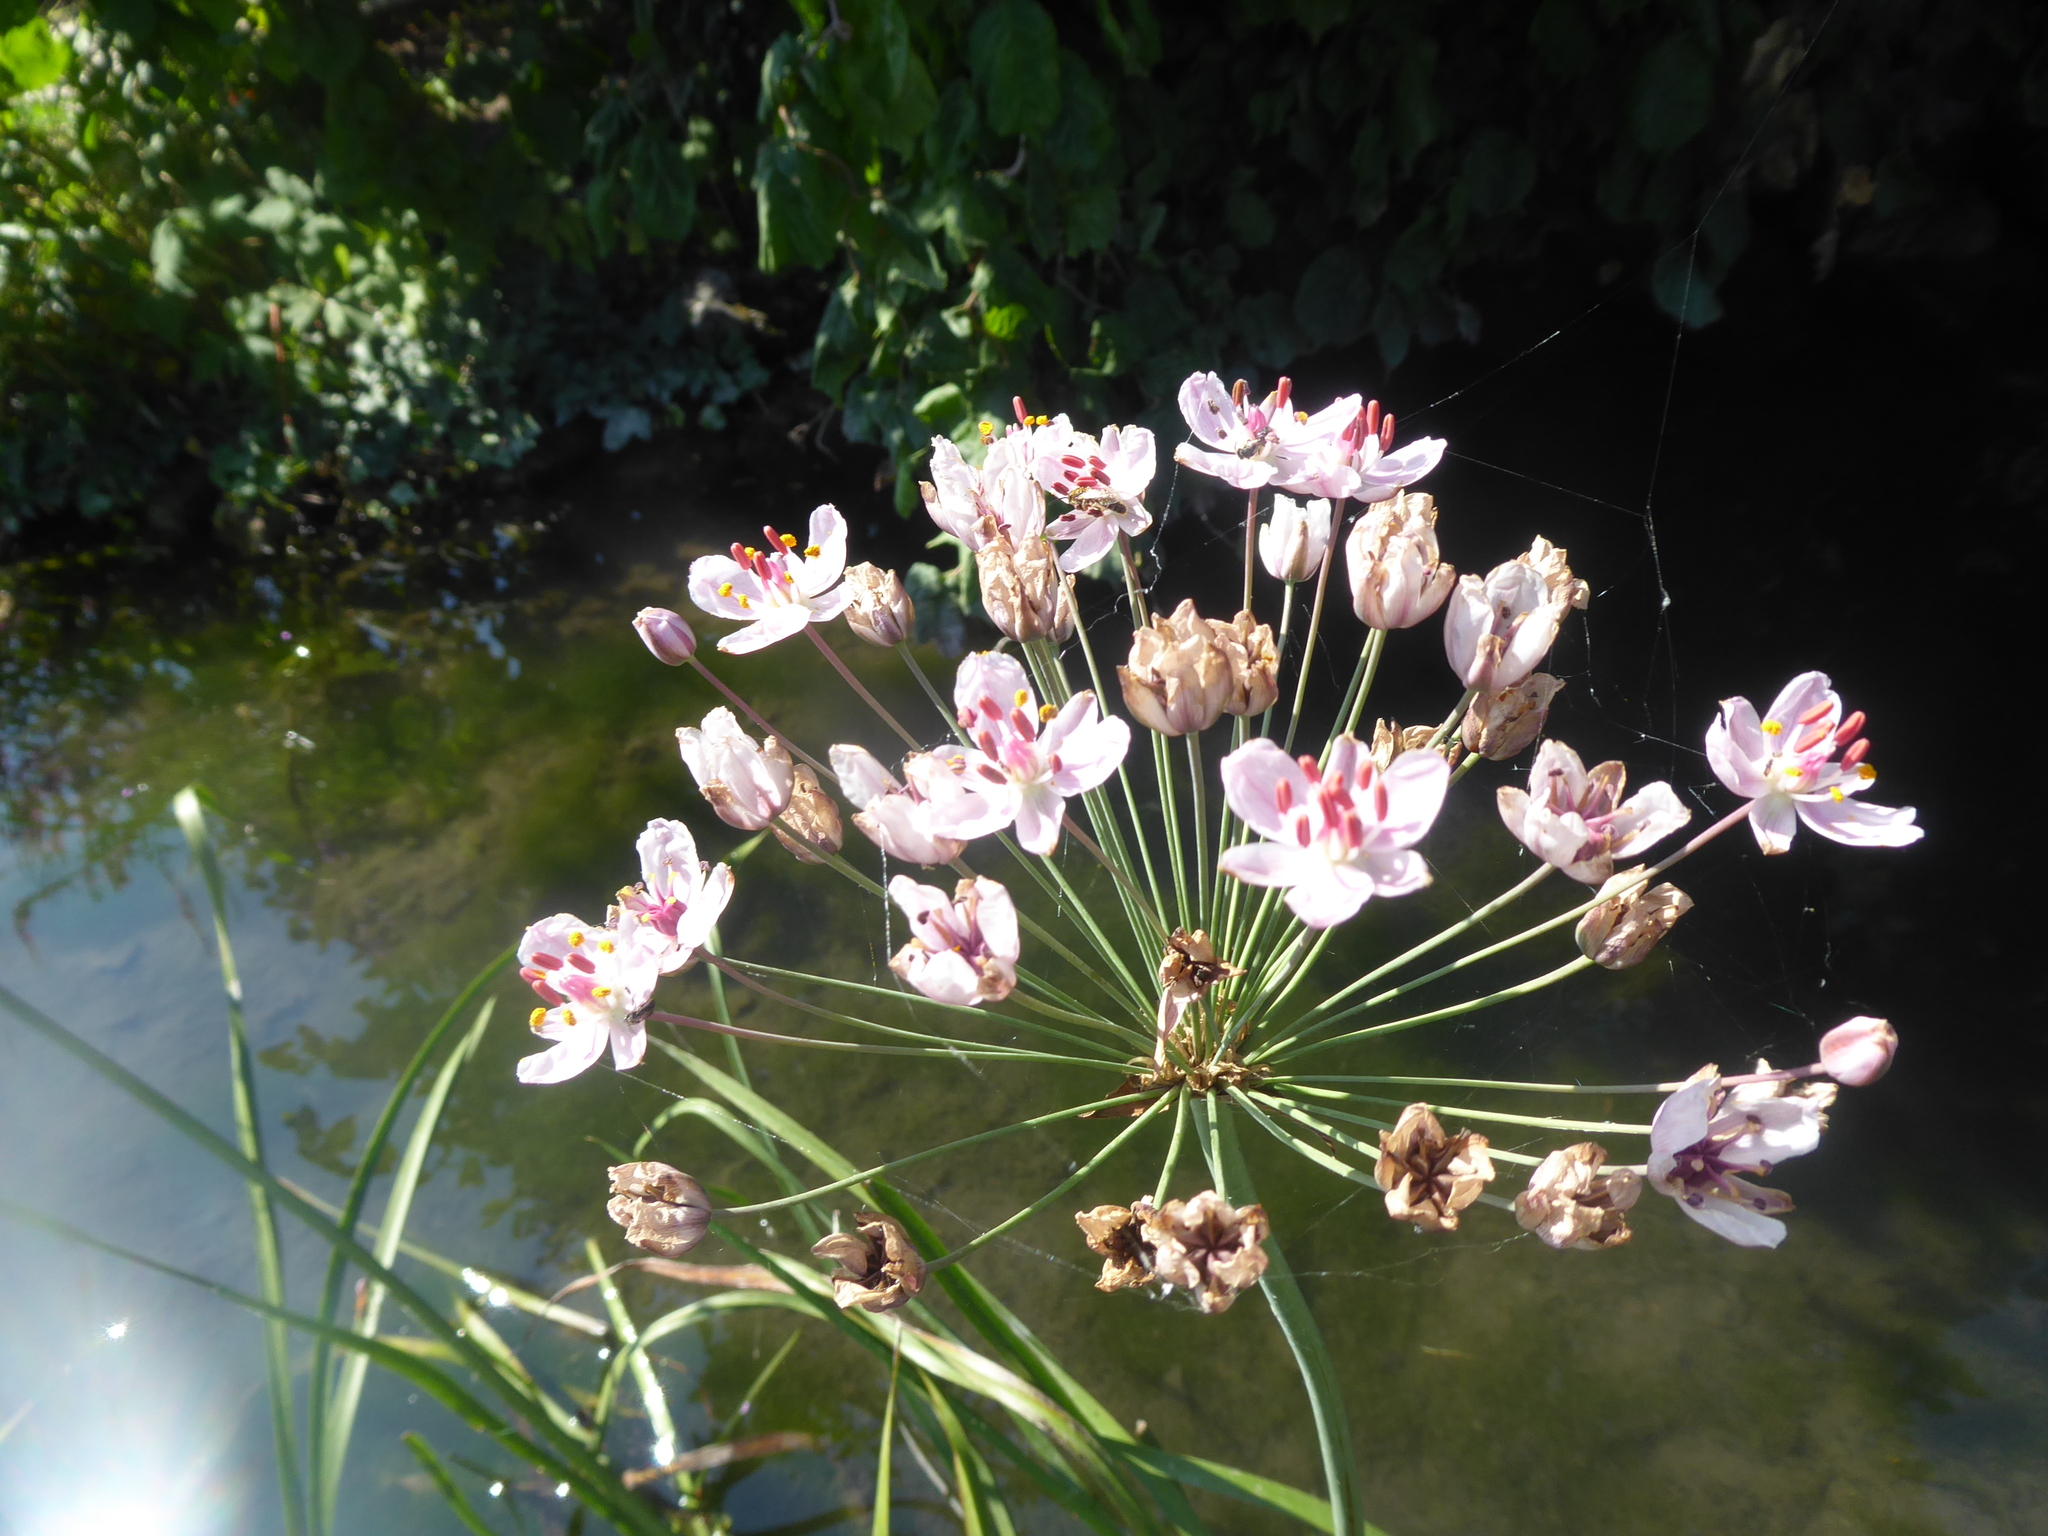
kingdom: Plantae
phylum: Tracheophyta
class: Liliopsida
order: Alismatales
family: Butomaceae
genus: Butomus
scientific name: Butomus umbellatus
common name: Flowering-rush
